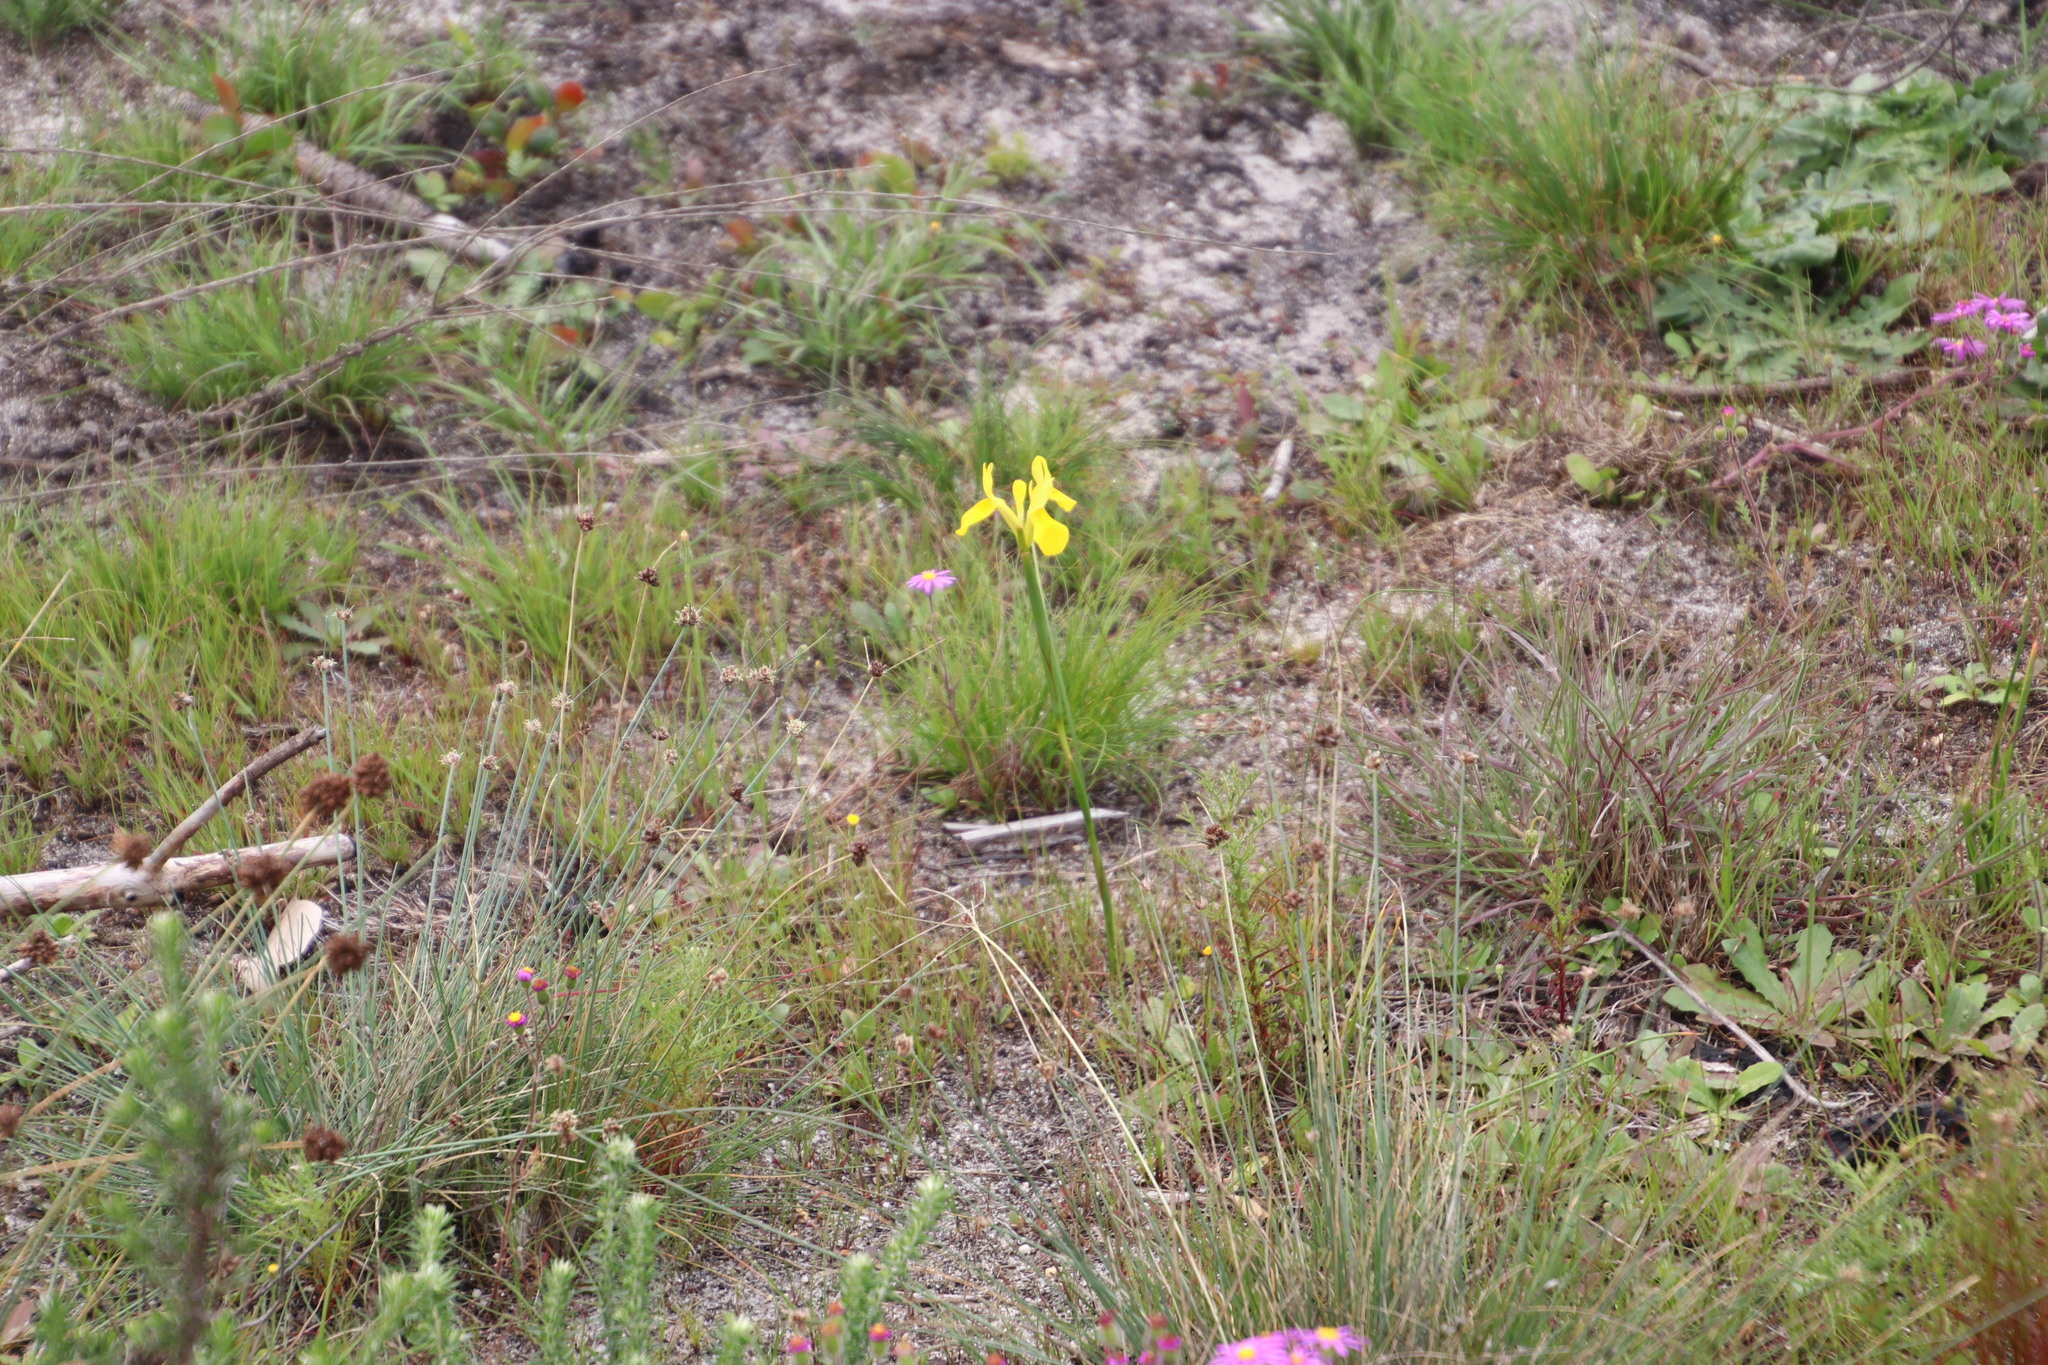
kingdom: Plantae
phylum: Tracheophyta
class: Liliopsida
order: Asparagales
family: Iridaceae
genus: Moraea
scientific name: Moraea neglecta
